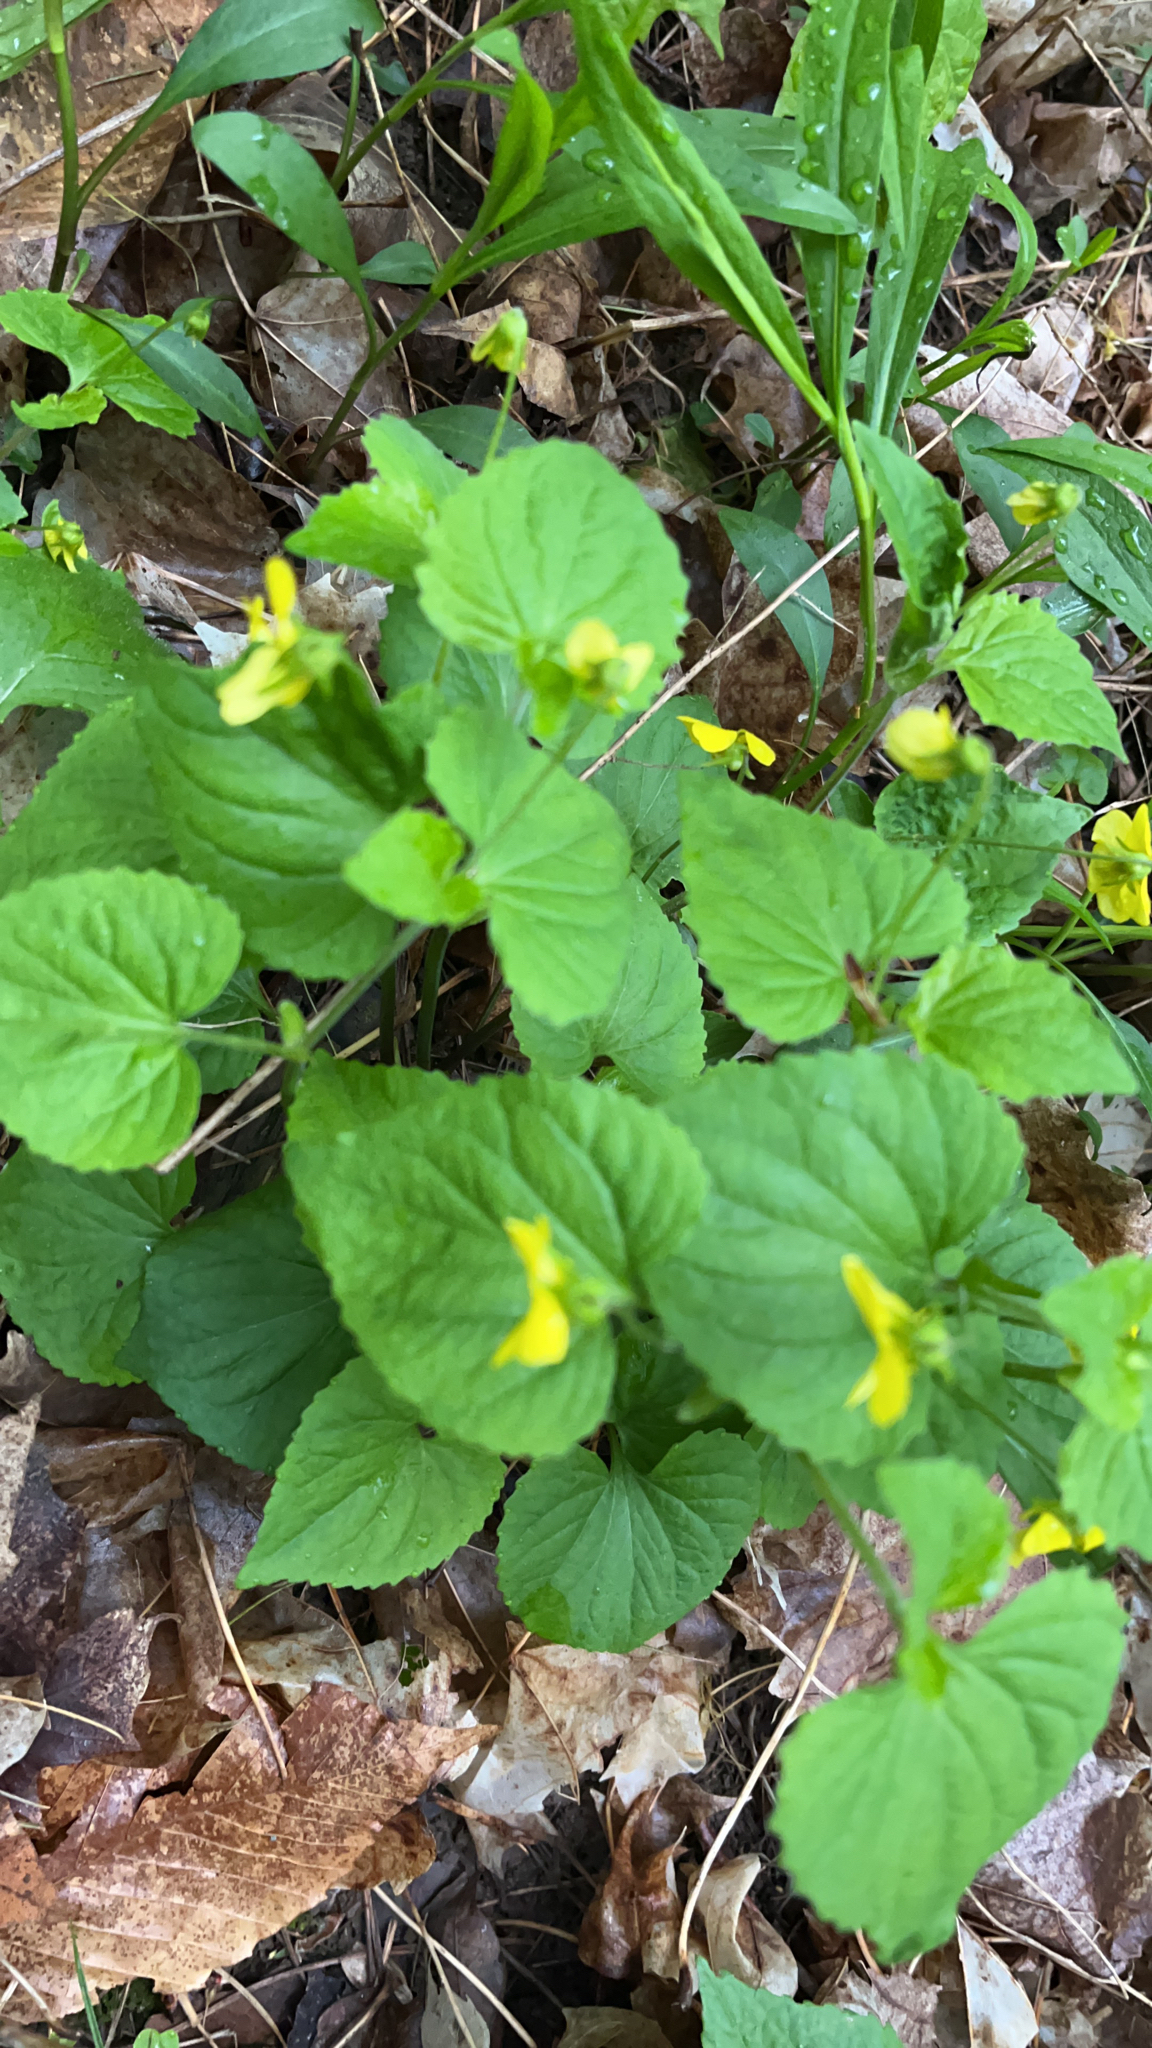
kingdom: Plantae
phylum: Tracheophyta
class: Magnoliopsida
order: Malpighiales
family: Violaceae
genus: Viola
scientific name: Viola eriocarpa
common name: Smooth yellow violet
